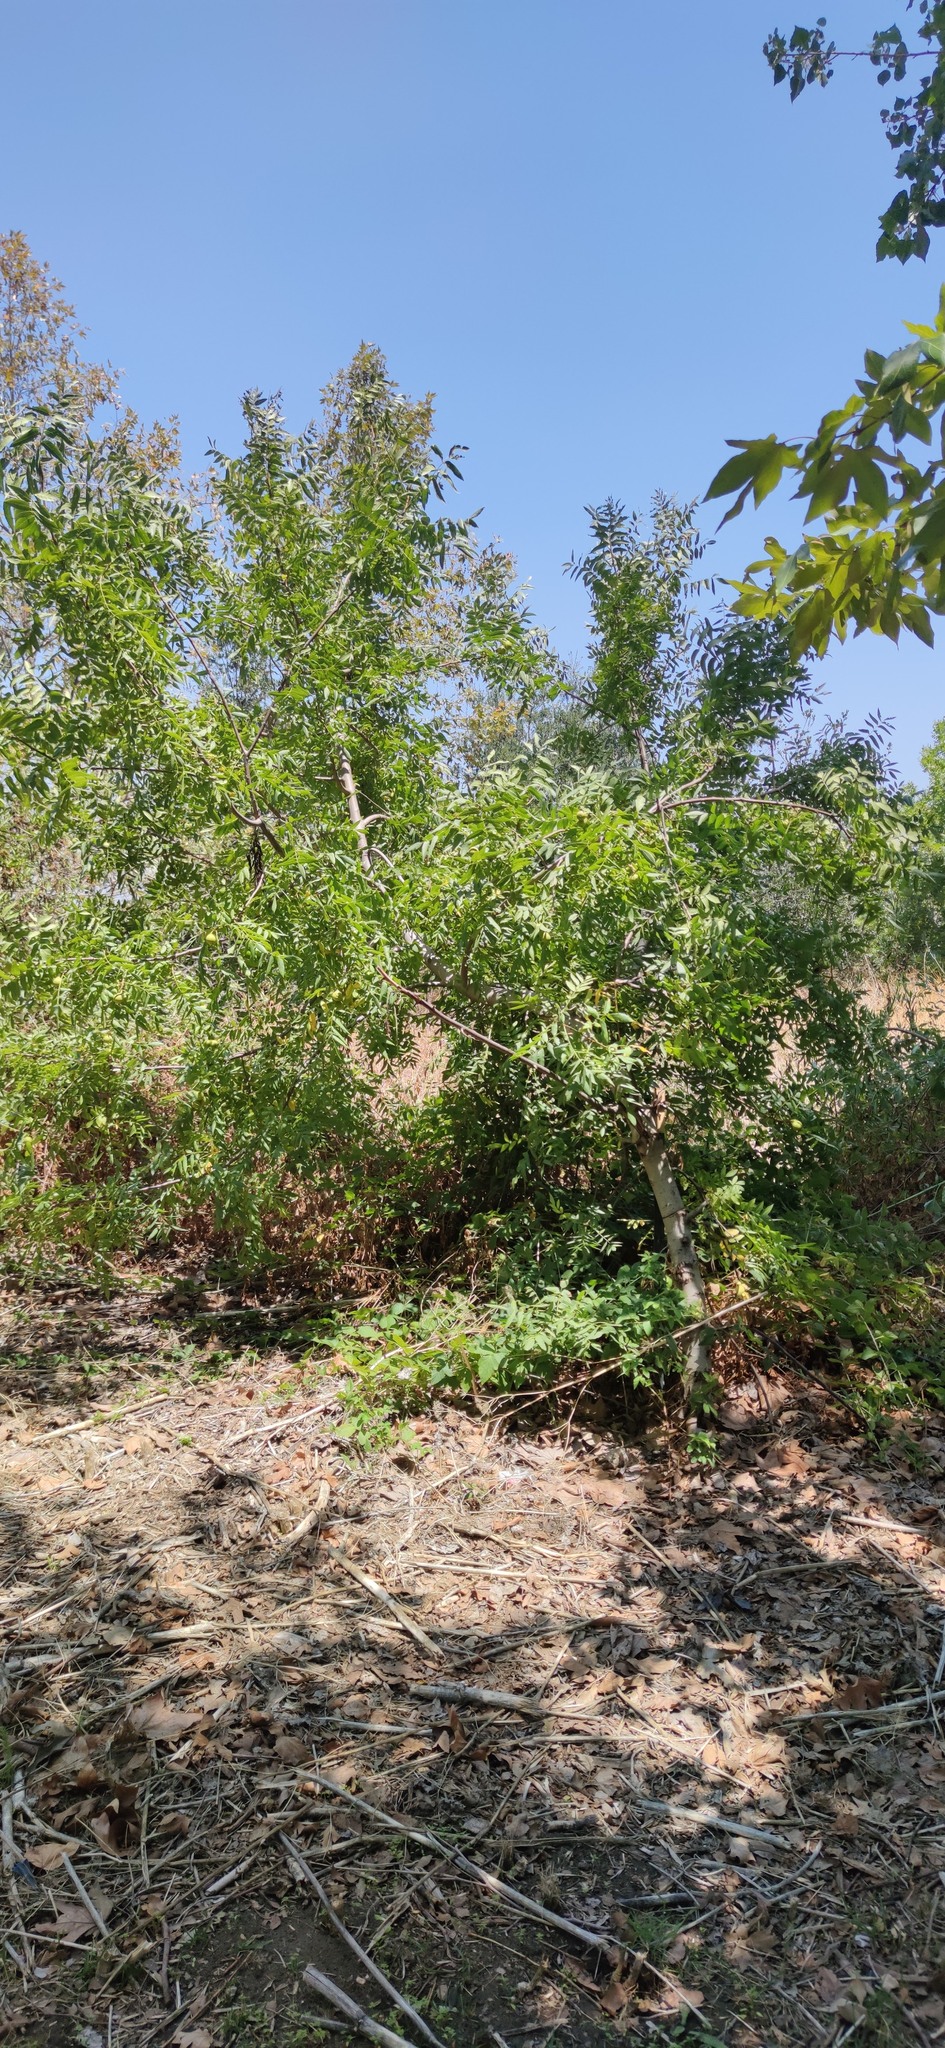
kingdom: Plantae
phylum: Tracheophyta
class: Magnoliopsida
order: Fagales
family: Juglandaceae
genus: Juglans
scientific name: Juglans californica
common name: Southern california black walnut
